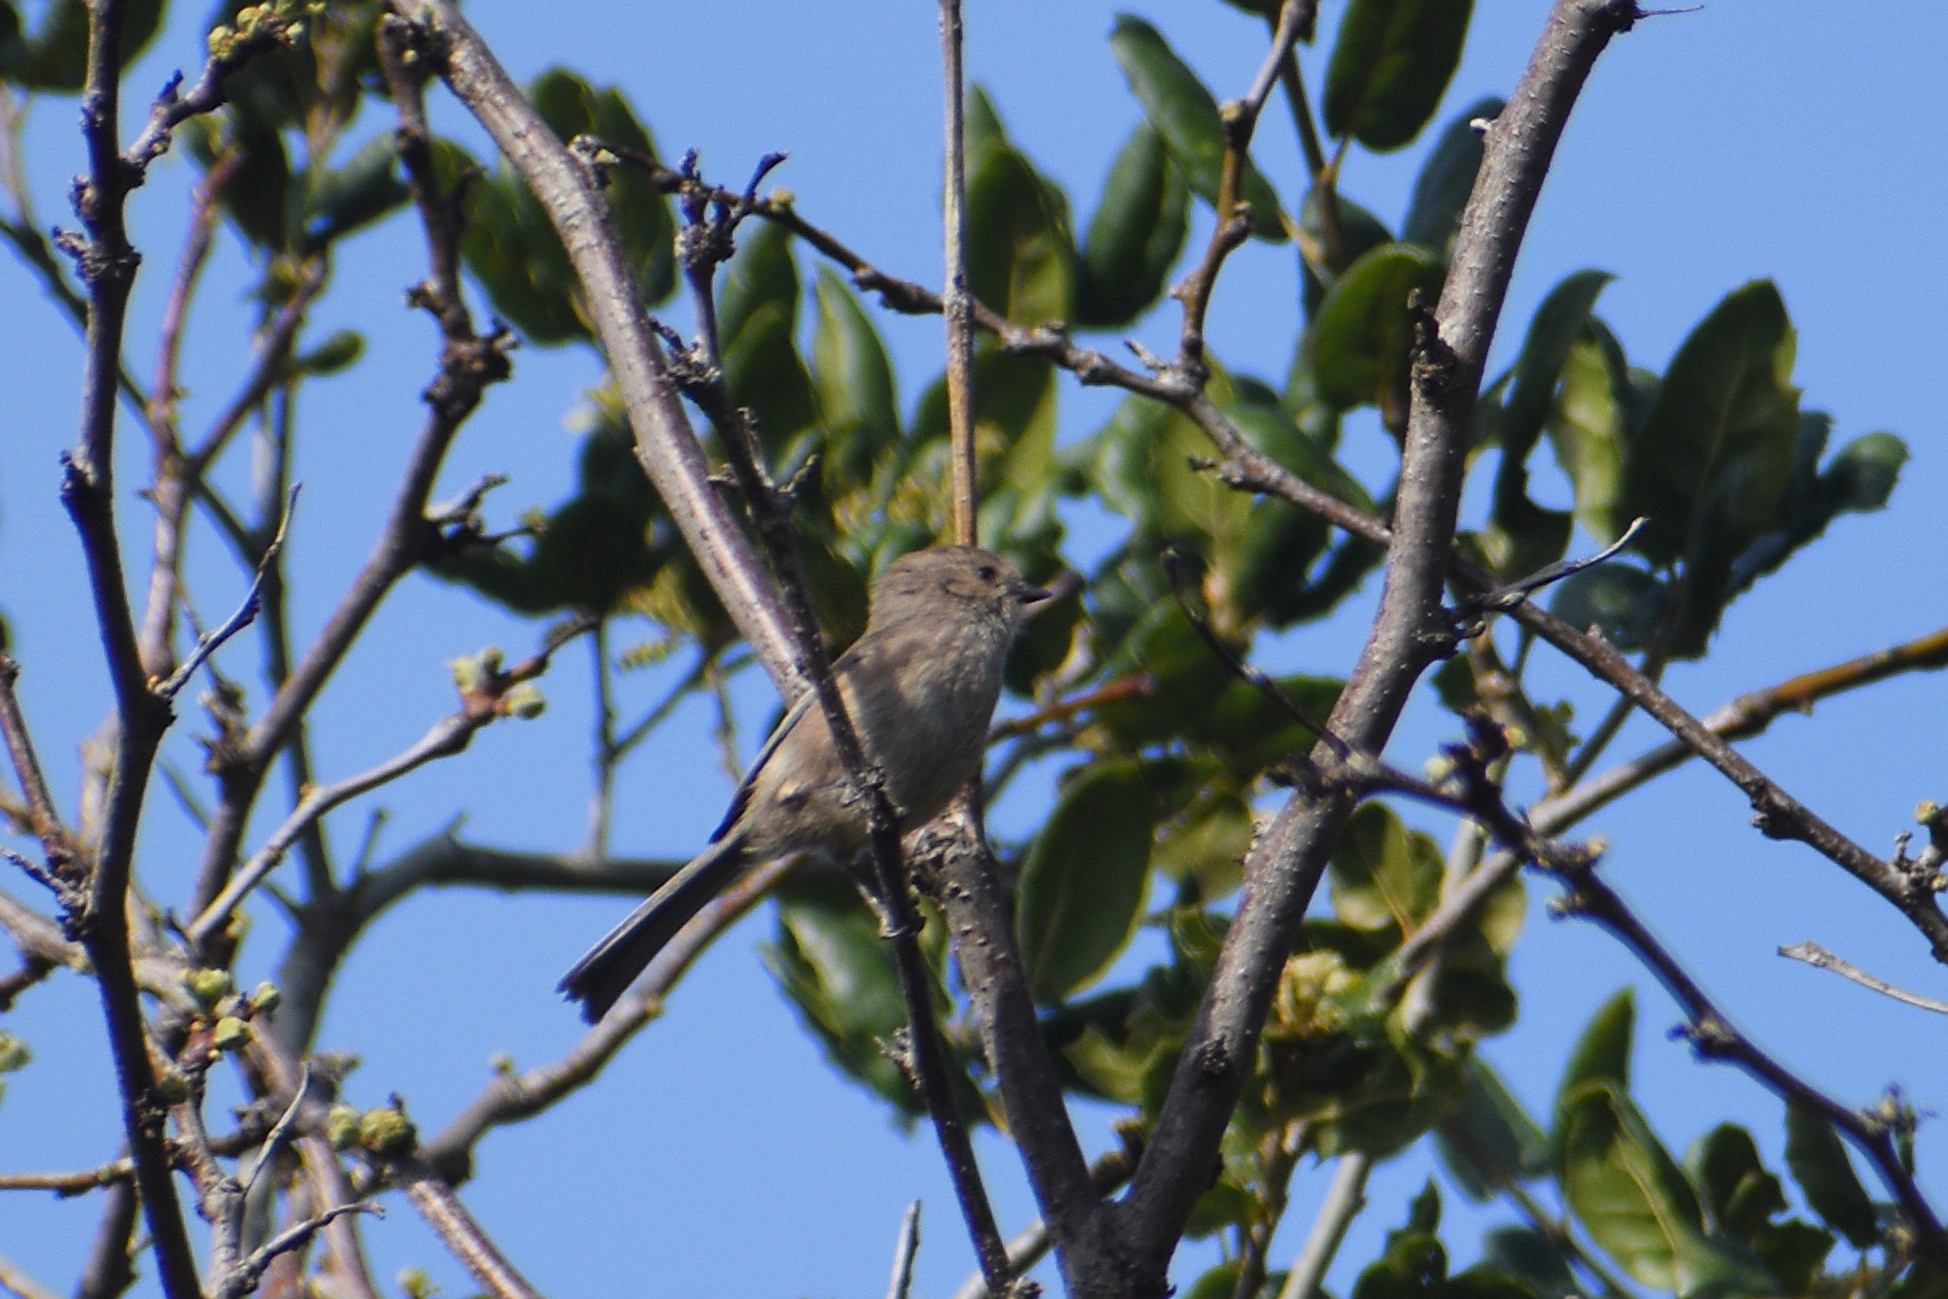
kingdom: Animalia
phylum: Chordata
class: Aves
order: Passeriformes
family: Aegithalidae
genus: Psaltriparus
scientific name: Psaltriparus minimus
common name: American bushtit
